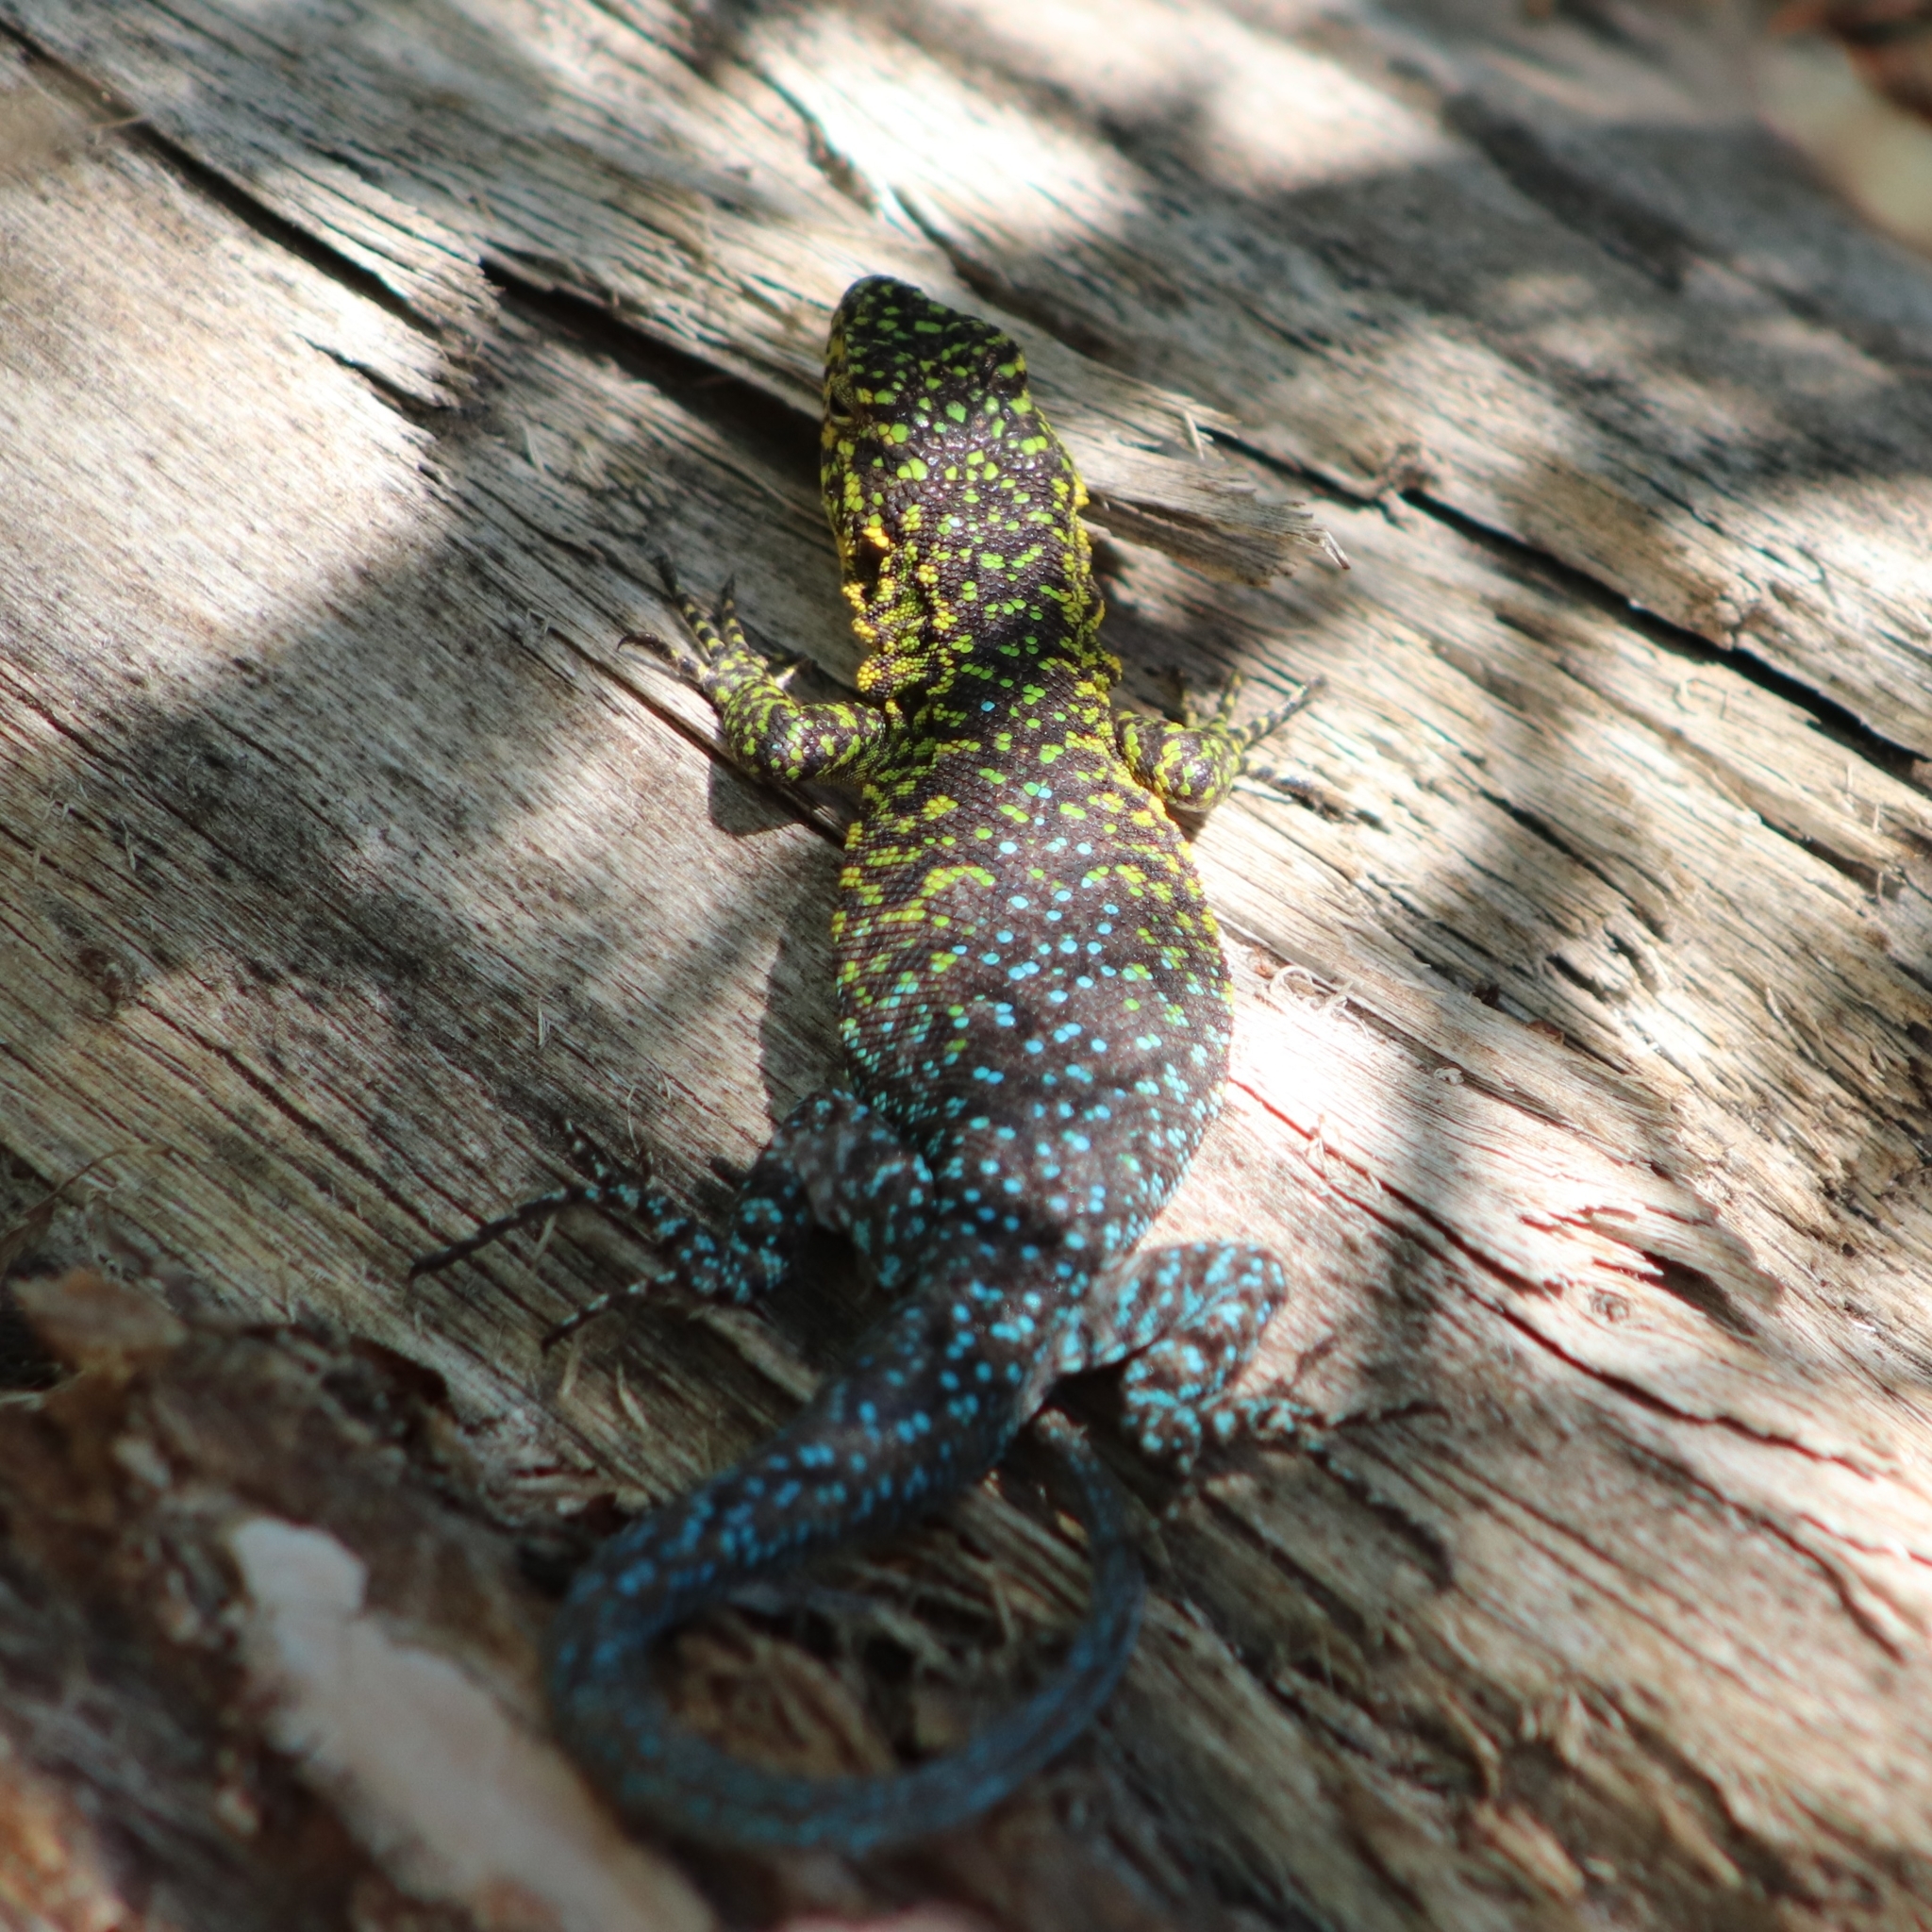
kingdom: Animalia
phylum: Chordata
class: Squamata
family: Liolaemidae
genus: Liolaemus
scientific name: Liolaemus tenuis
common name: Thin tree iguana
